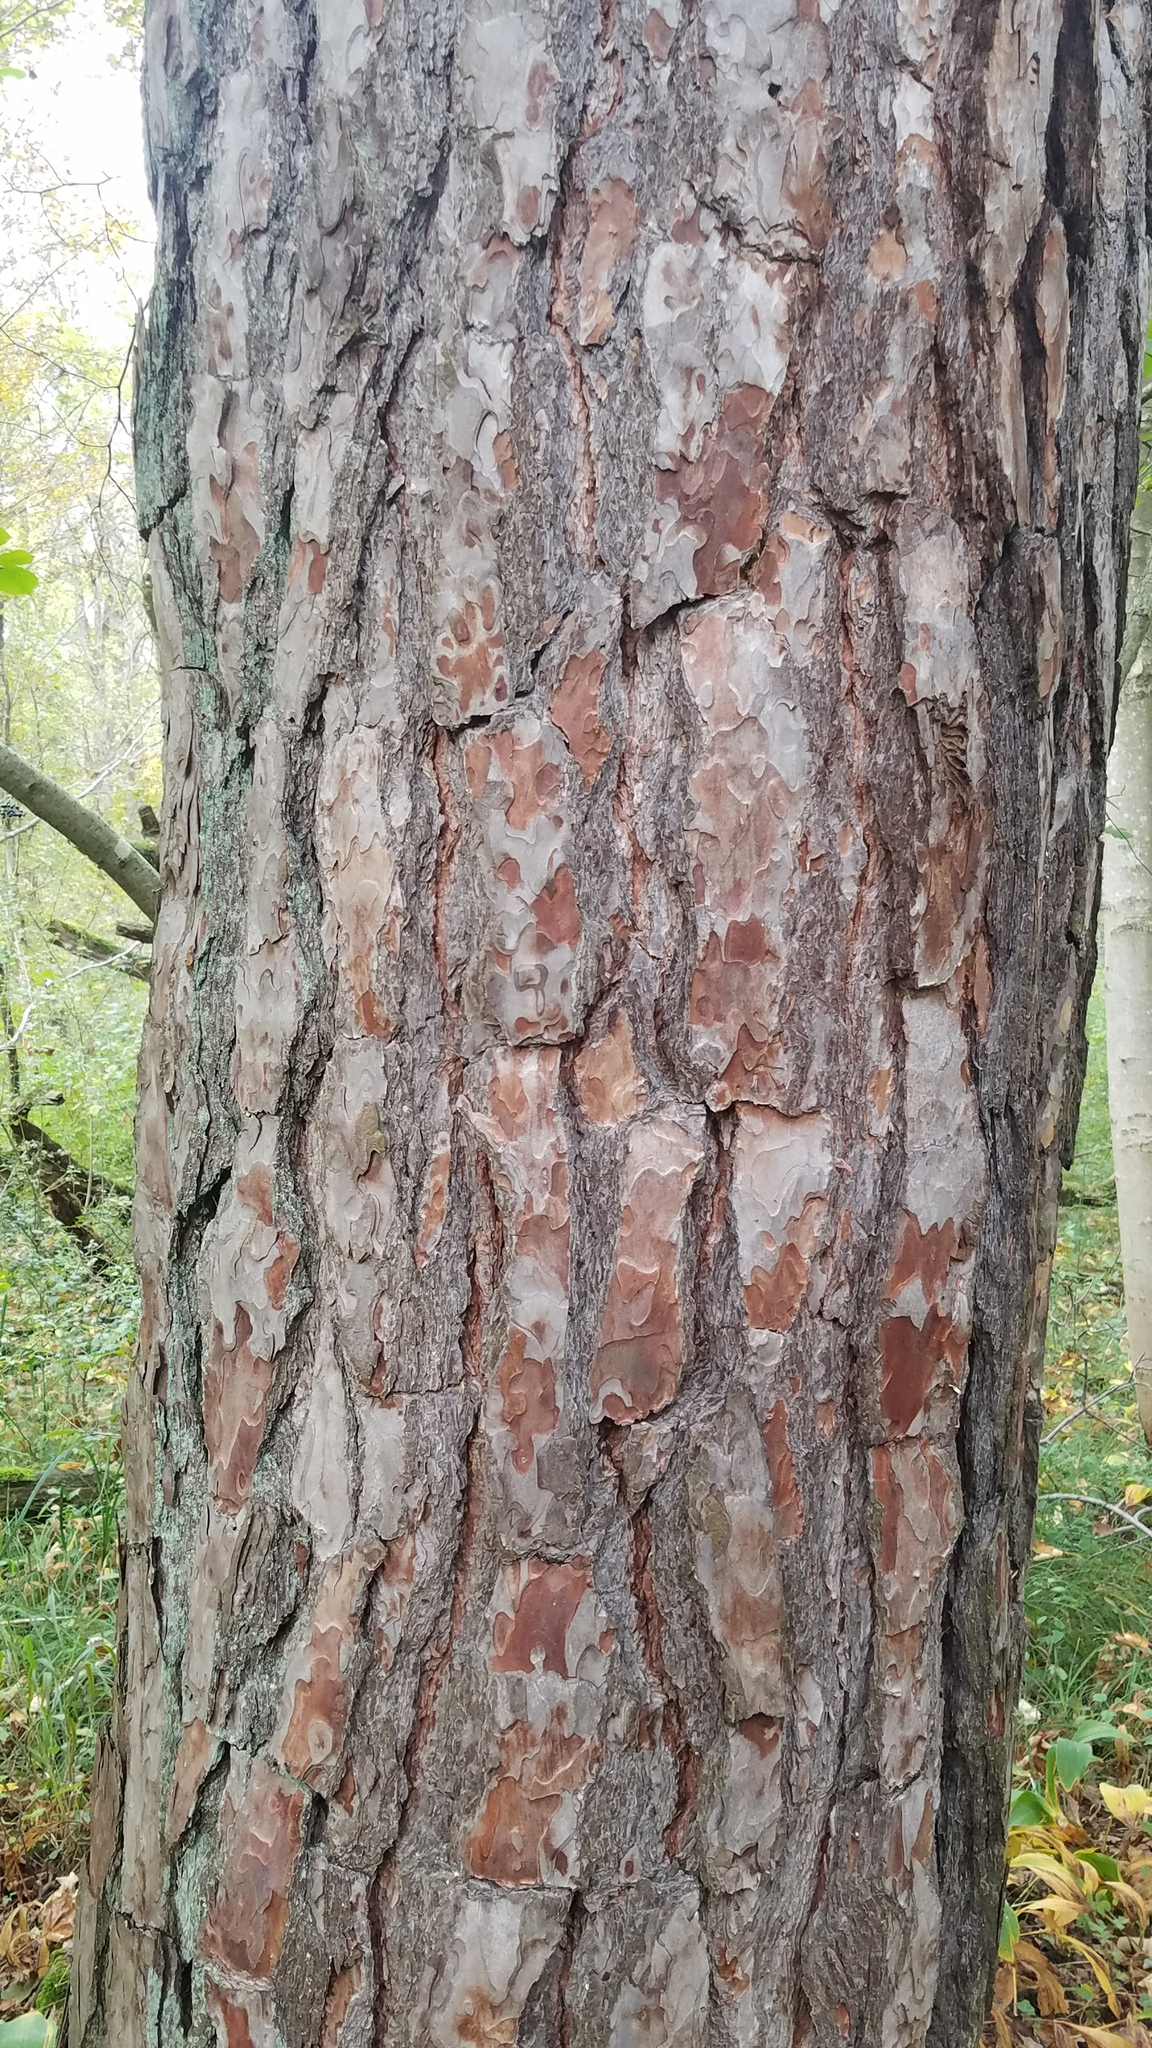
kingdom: Plantae
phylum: Tracheophyta
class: Pinopsida
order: Pinales
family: Pinaceae
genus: Pinus
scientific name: Pinus sylvestris
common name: Scots pine
